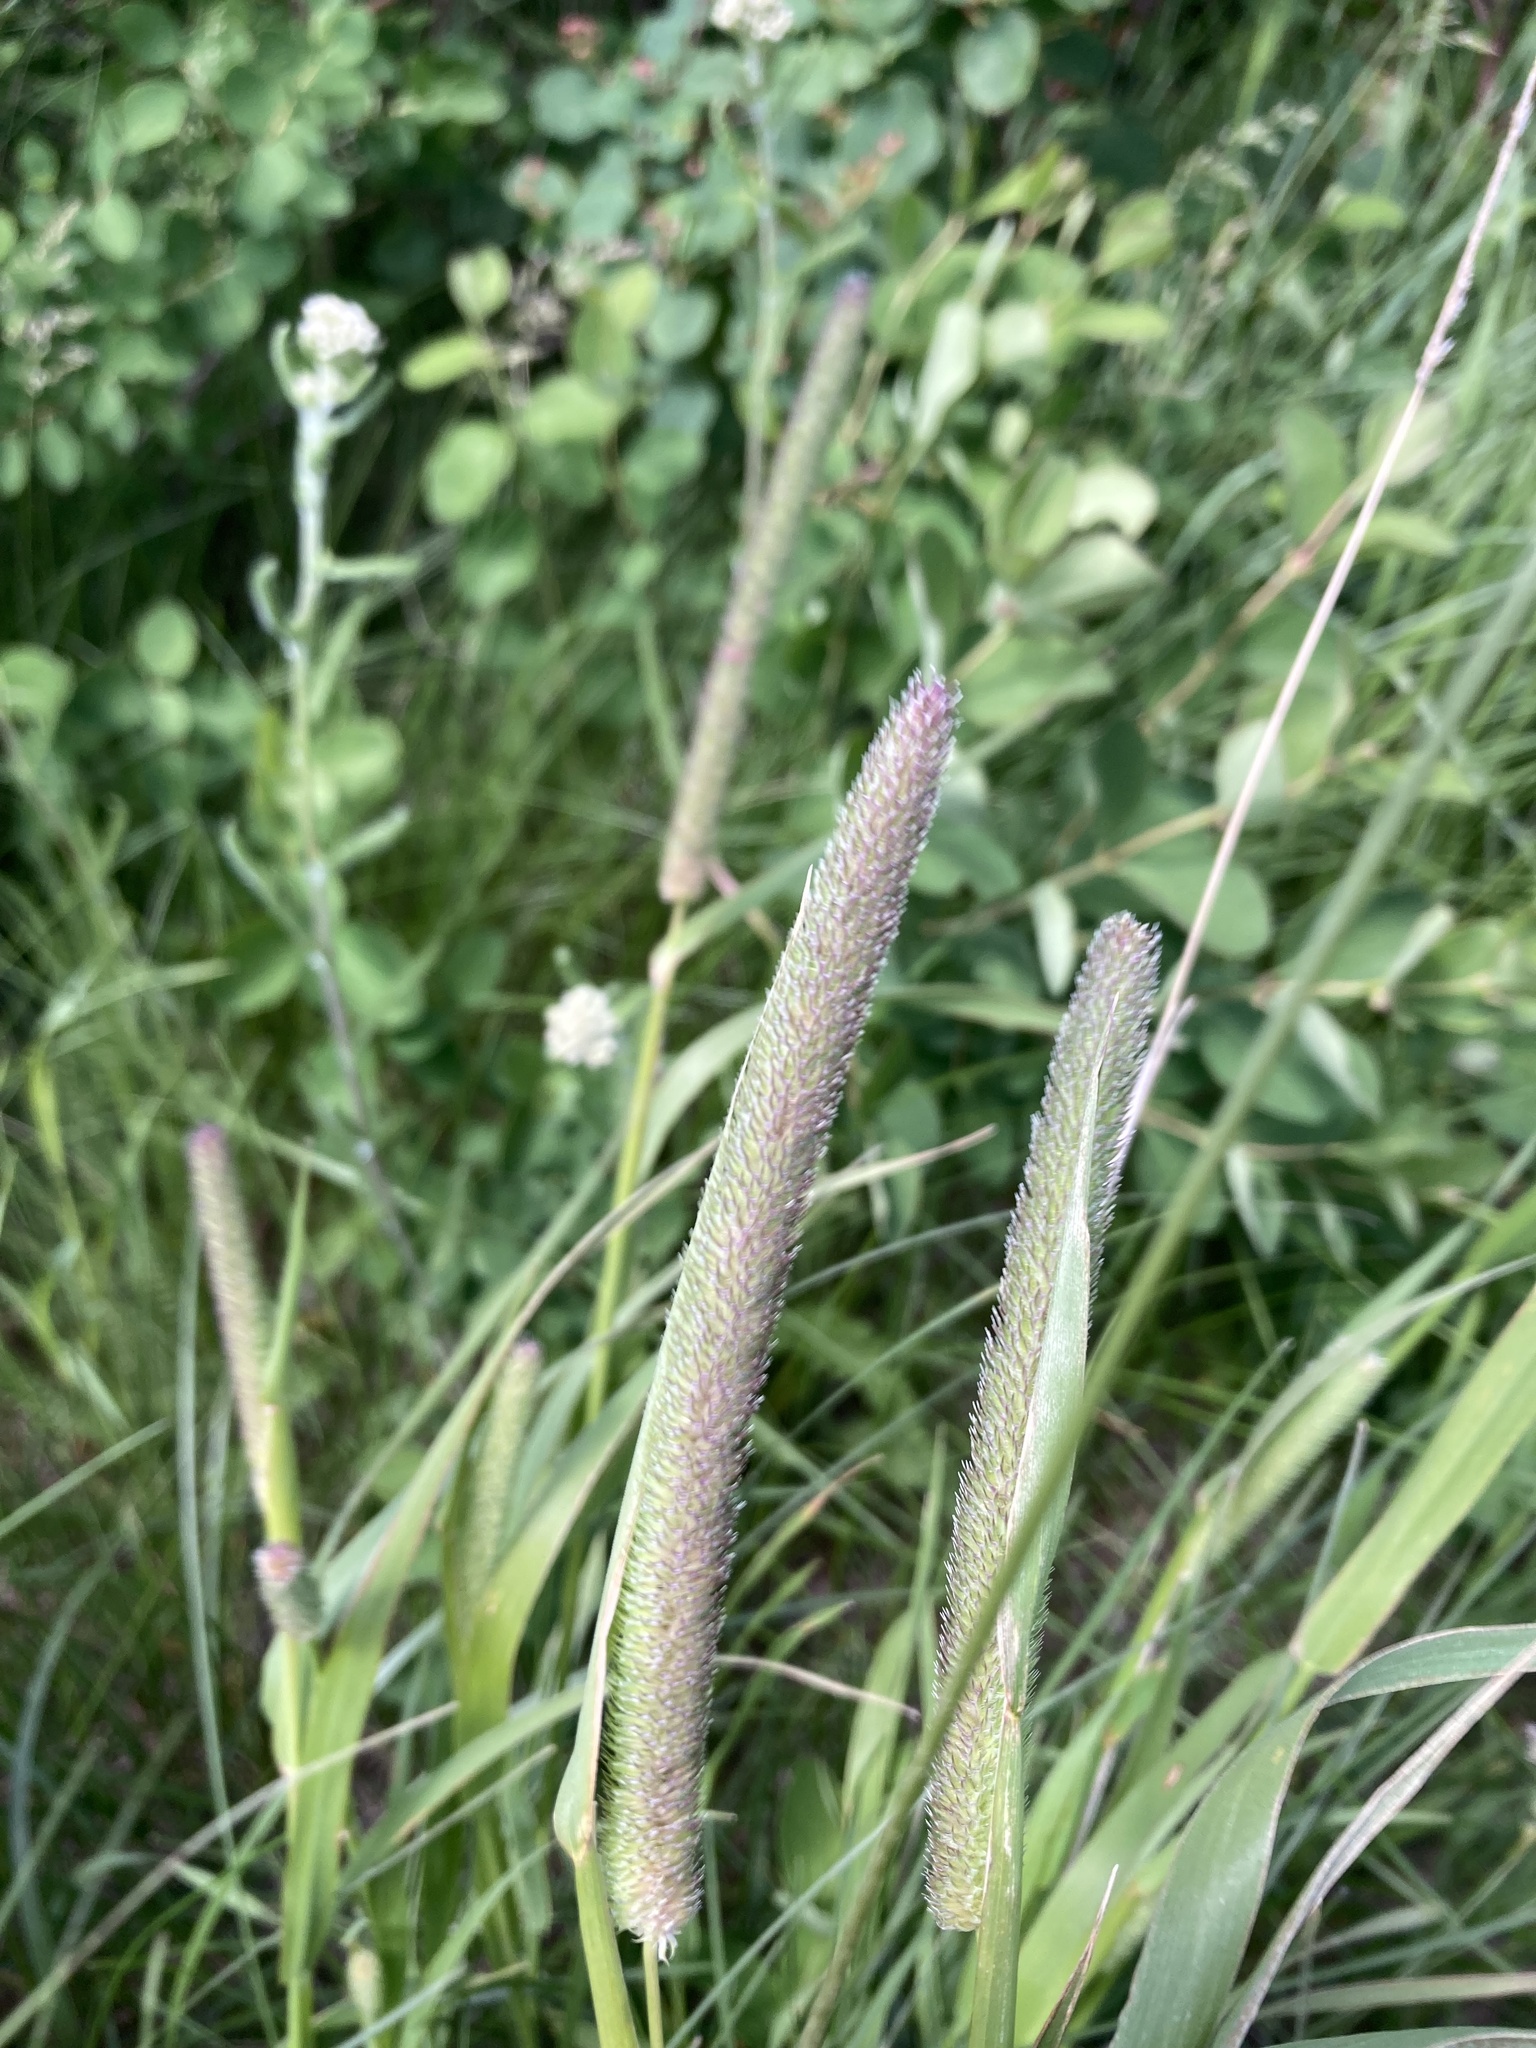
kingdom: Plantae
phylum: Tracheophyta
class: Liliopsida
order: Poales
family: Poaceae
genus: Phleum
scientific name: Phleum pratense
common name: Timothy grass
